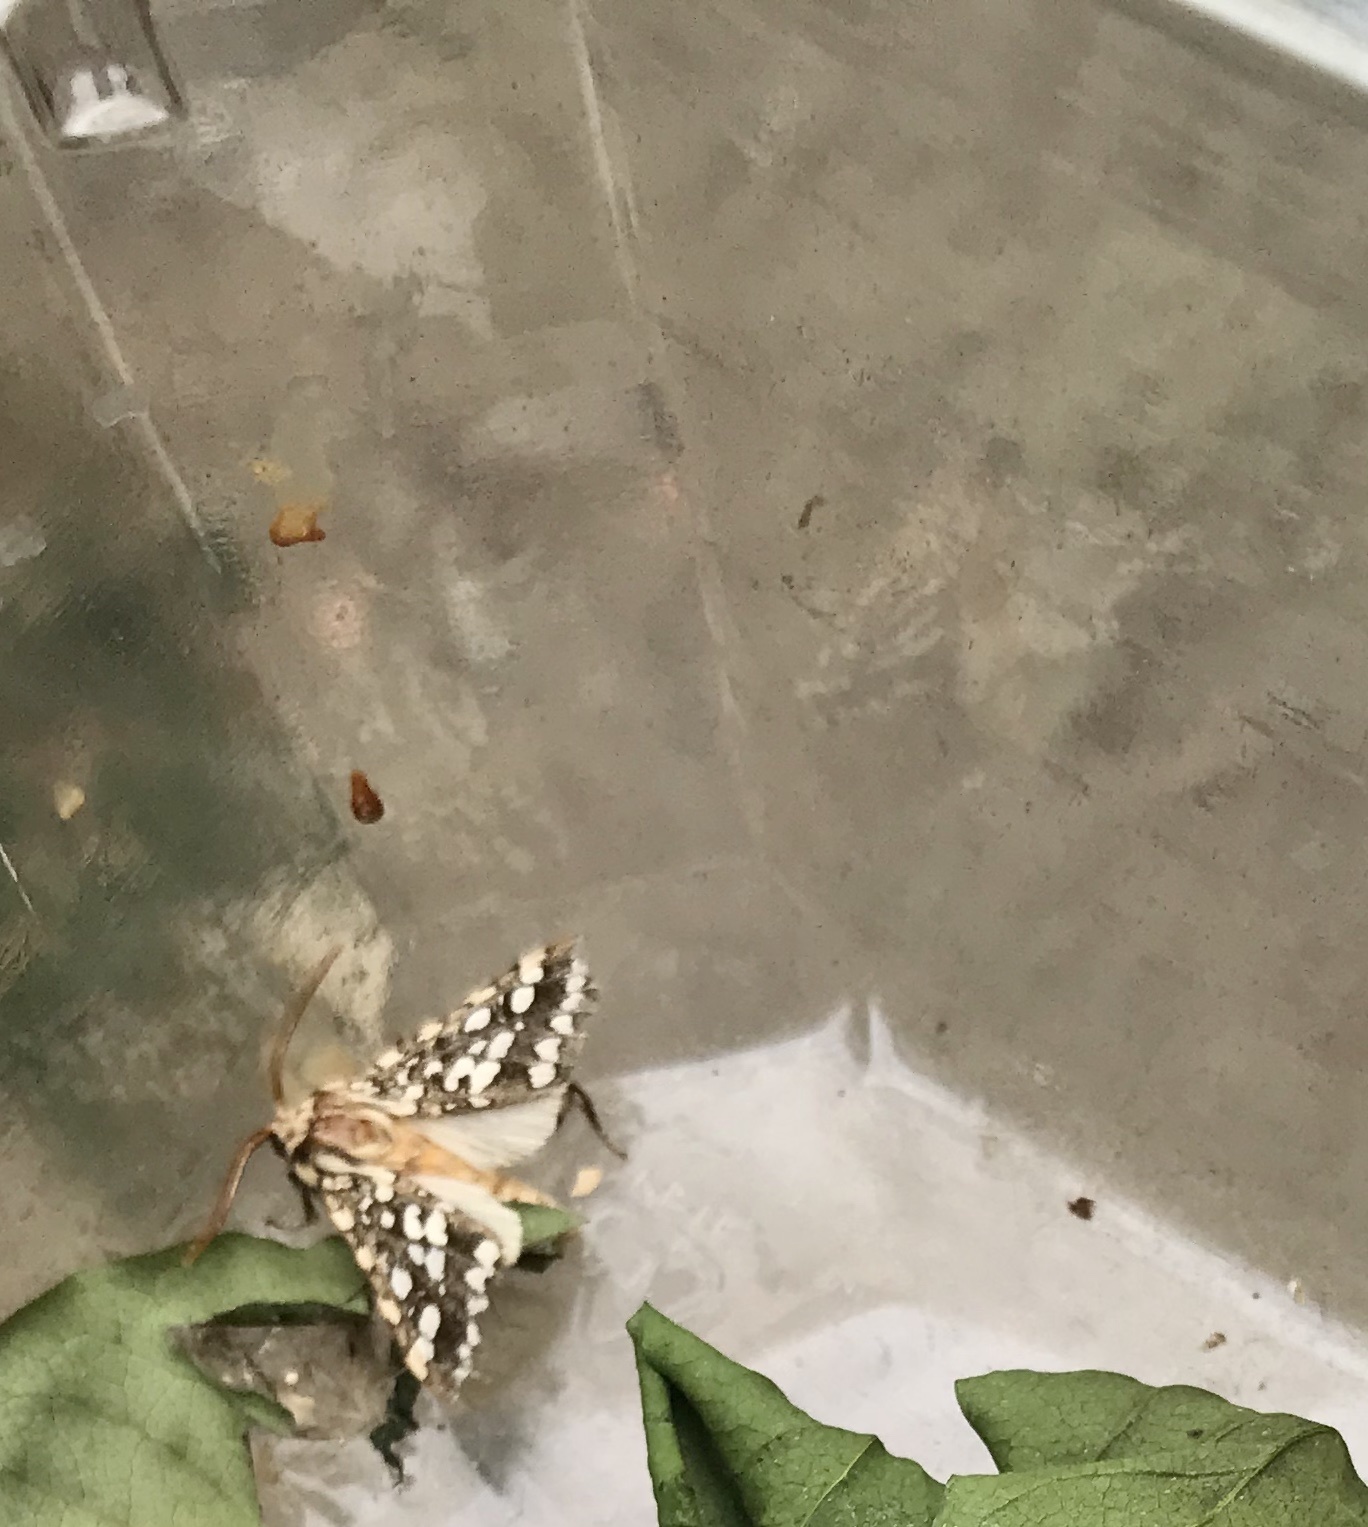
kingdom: Animalia
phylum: Arthropoda
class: Insecta
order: Lepidoptera
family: Erebidae
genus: Lophocampa
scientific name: Lophocampa argentata
